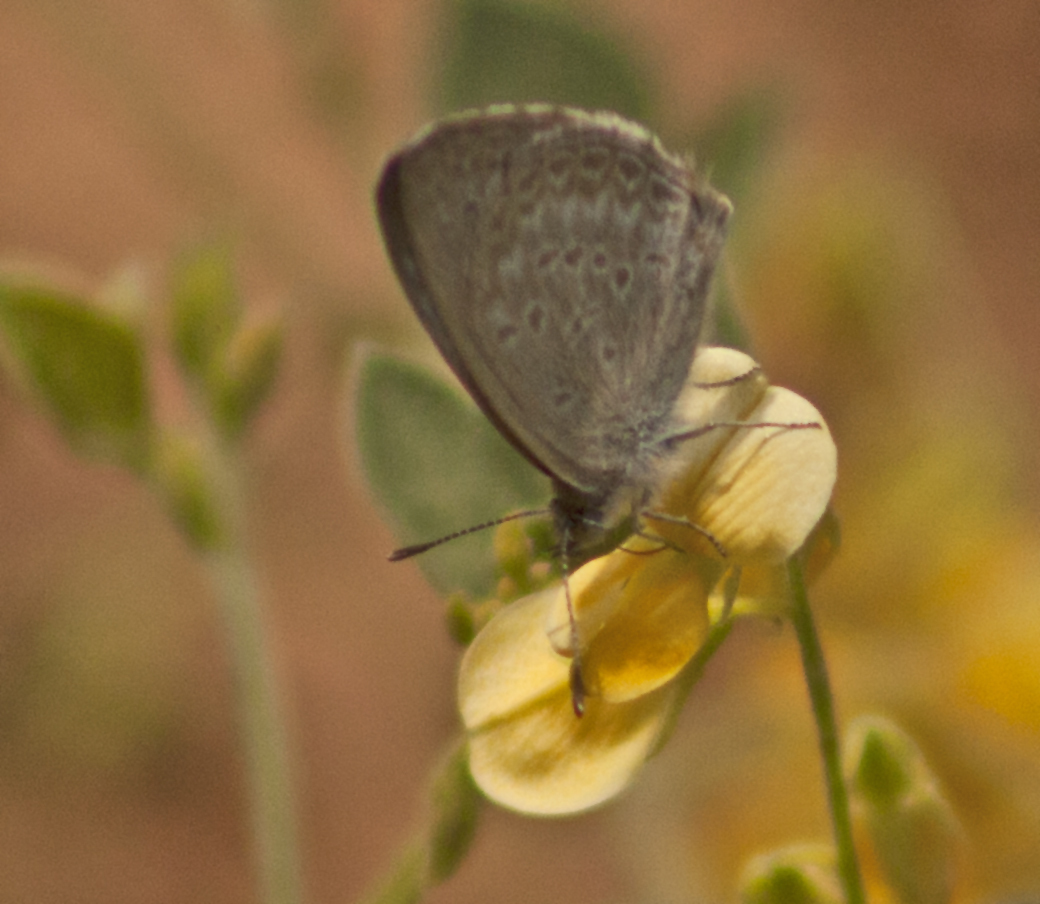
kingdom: Animalia
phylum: Arthropoda
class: Insecta
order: Lepidoptera
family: Lycaenidae
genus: Zizina
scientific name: Zizina labradus
